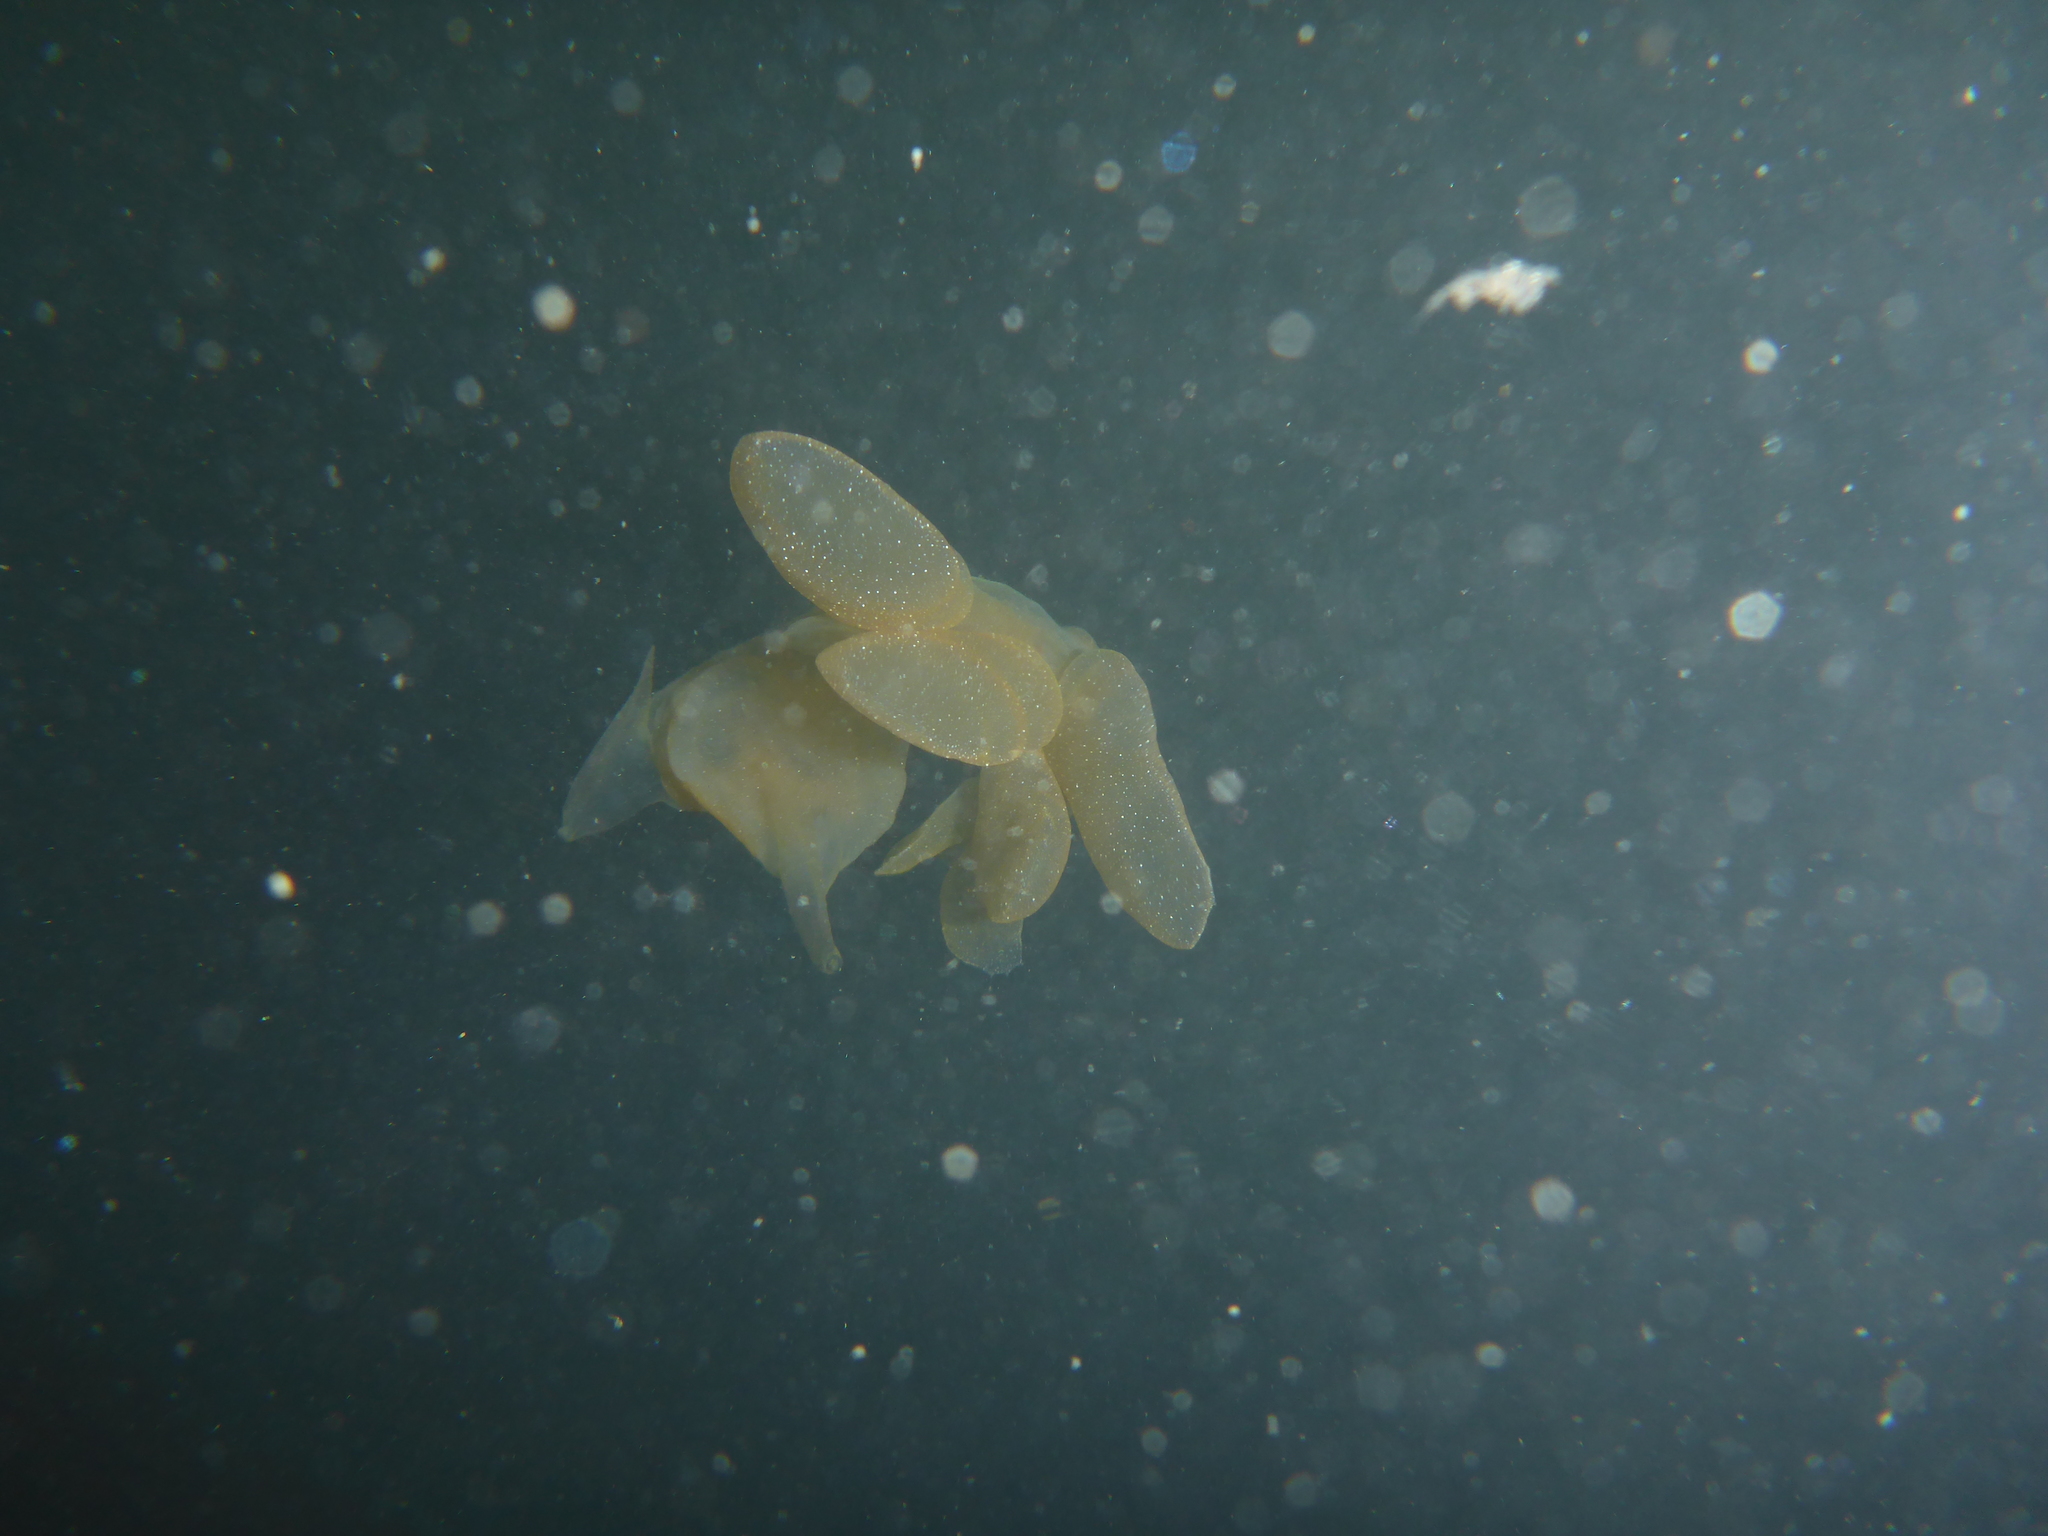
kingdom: Animalia
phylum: Mollusca
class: Gastropoda
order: Nudibranchia
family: Tethydidae
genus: Melibe
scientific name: Melibe leonina
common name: Lion nudibranch
